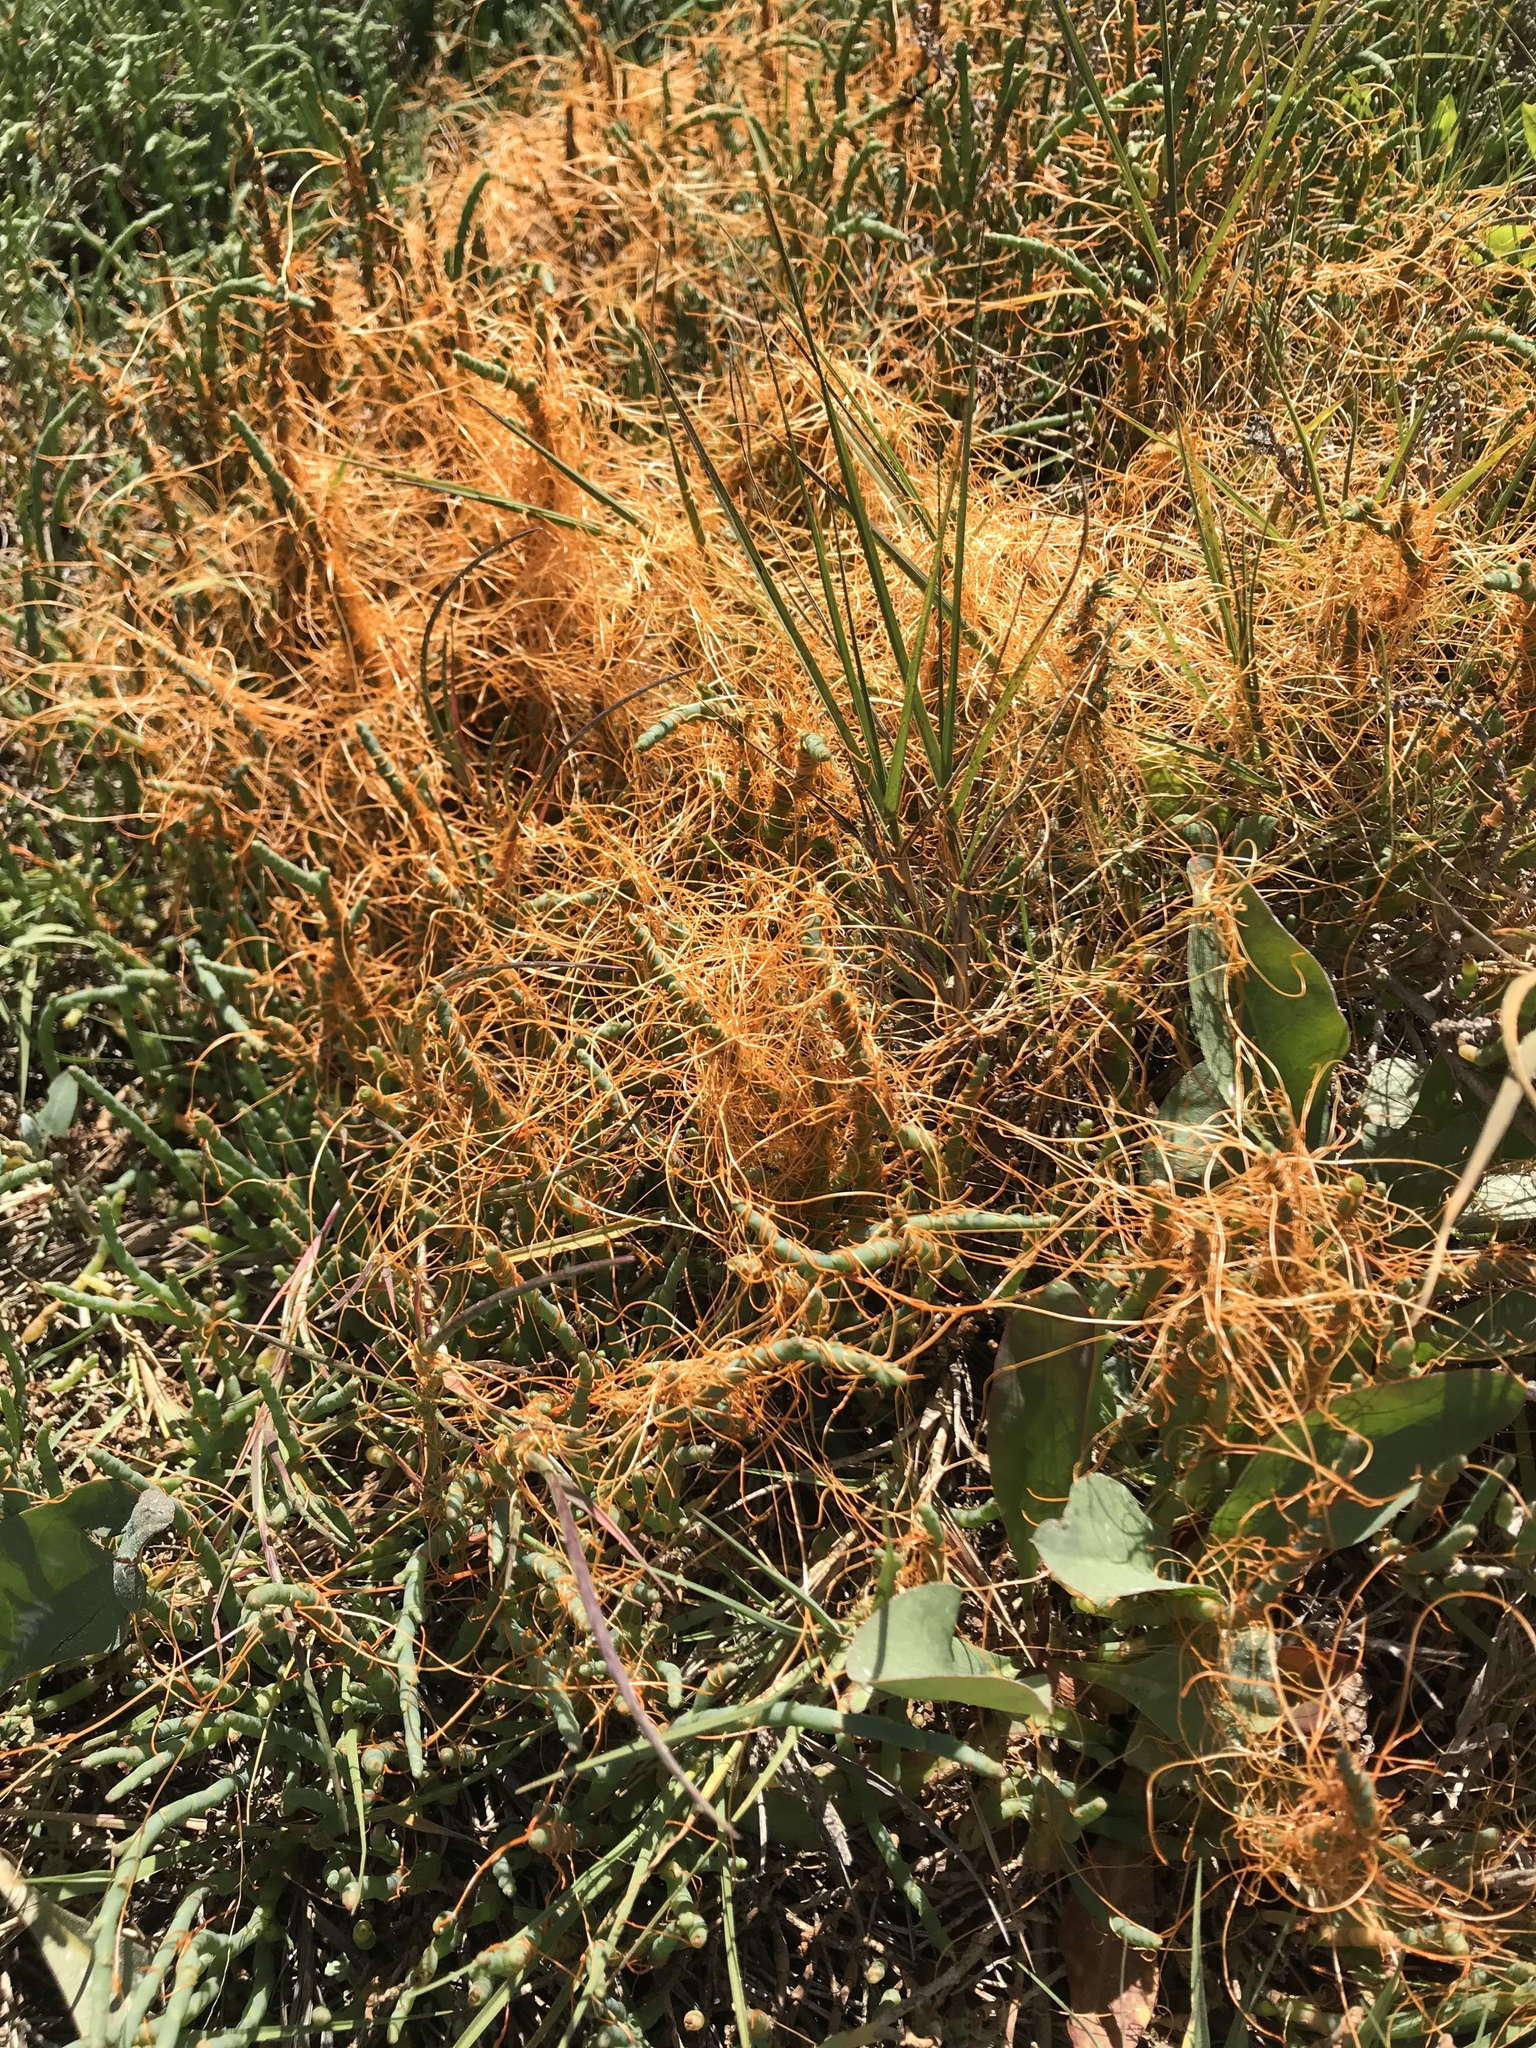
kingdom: Plantae
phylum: Tracheophyta
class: Magnoliopsida
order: Solanales
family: Convolvulaceae
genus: Cuscuta
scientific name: Cuscuta pacifica
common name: Large saltmarsh dodder
